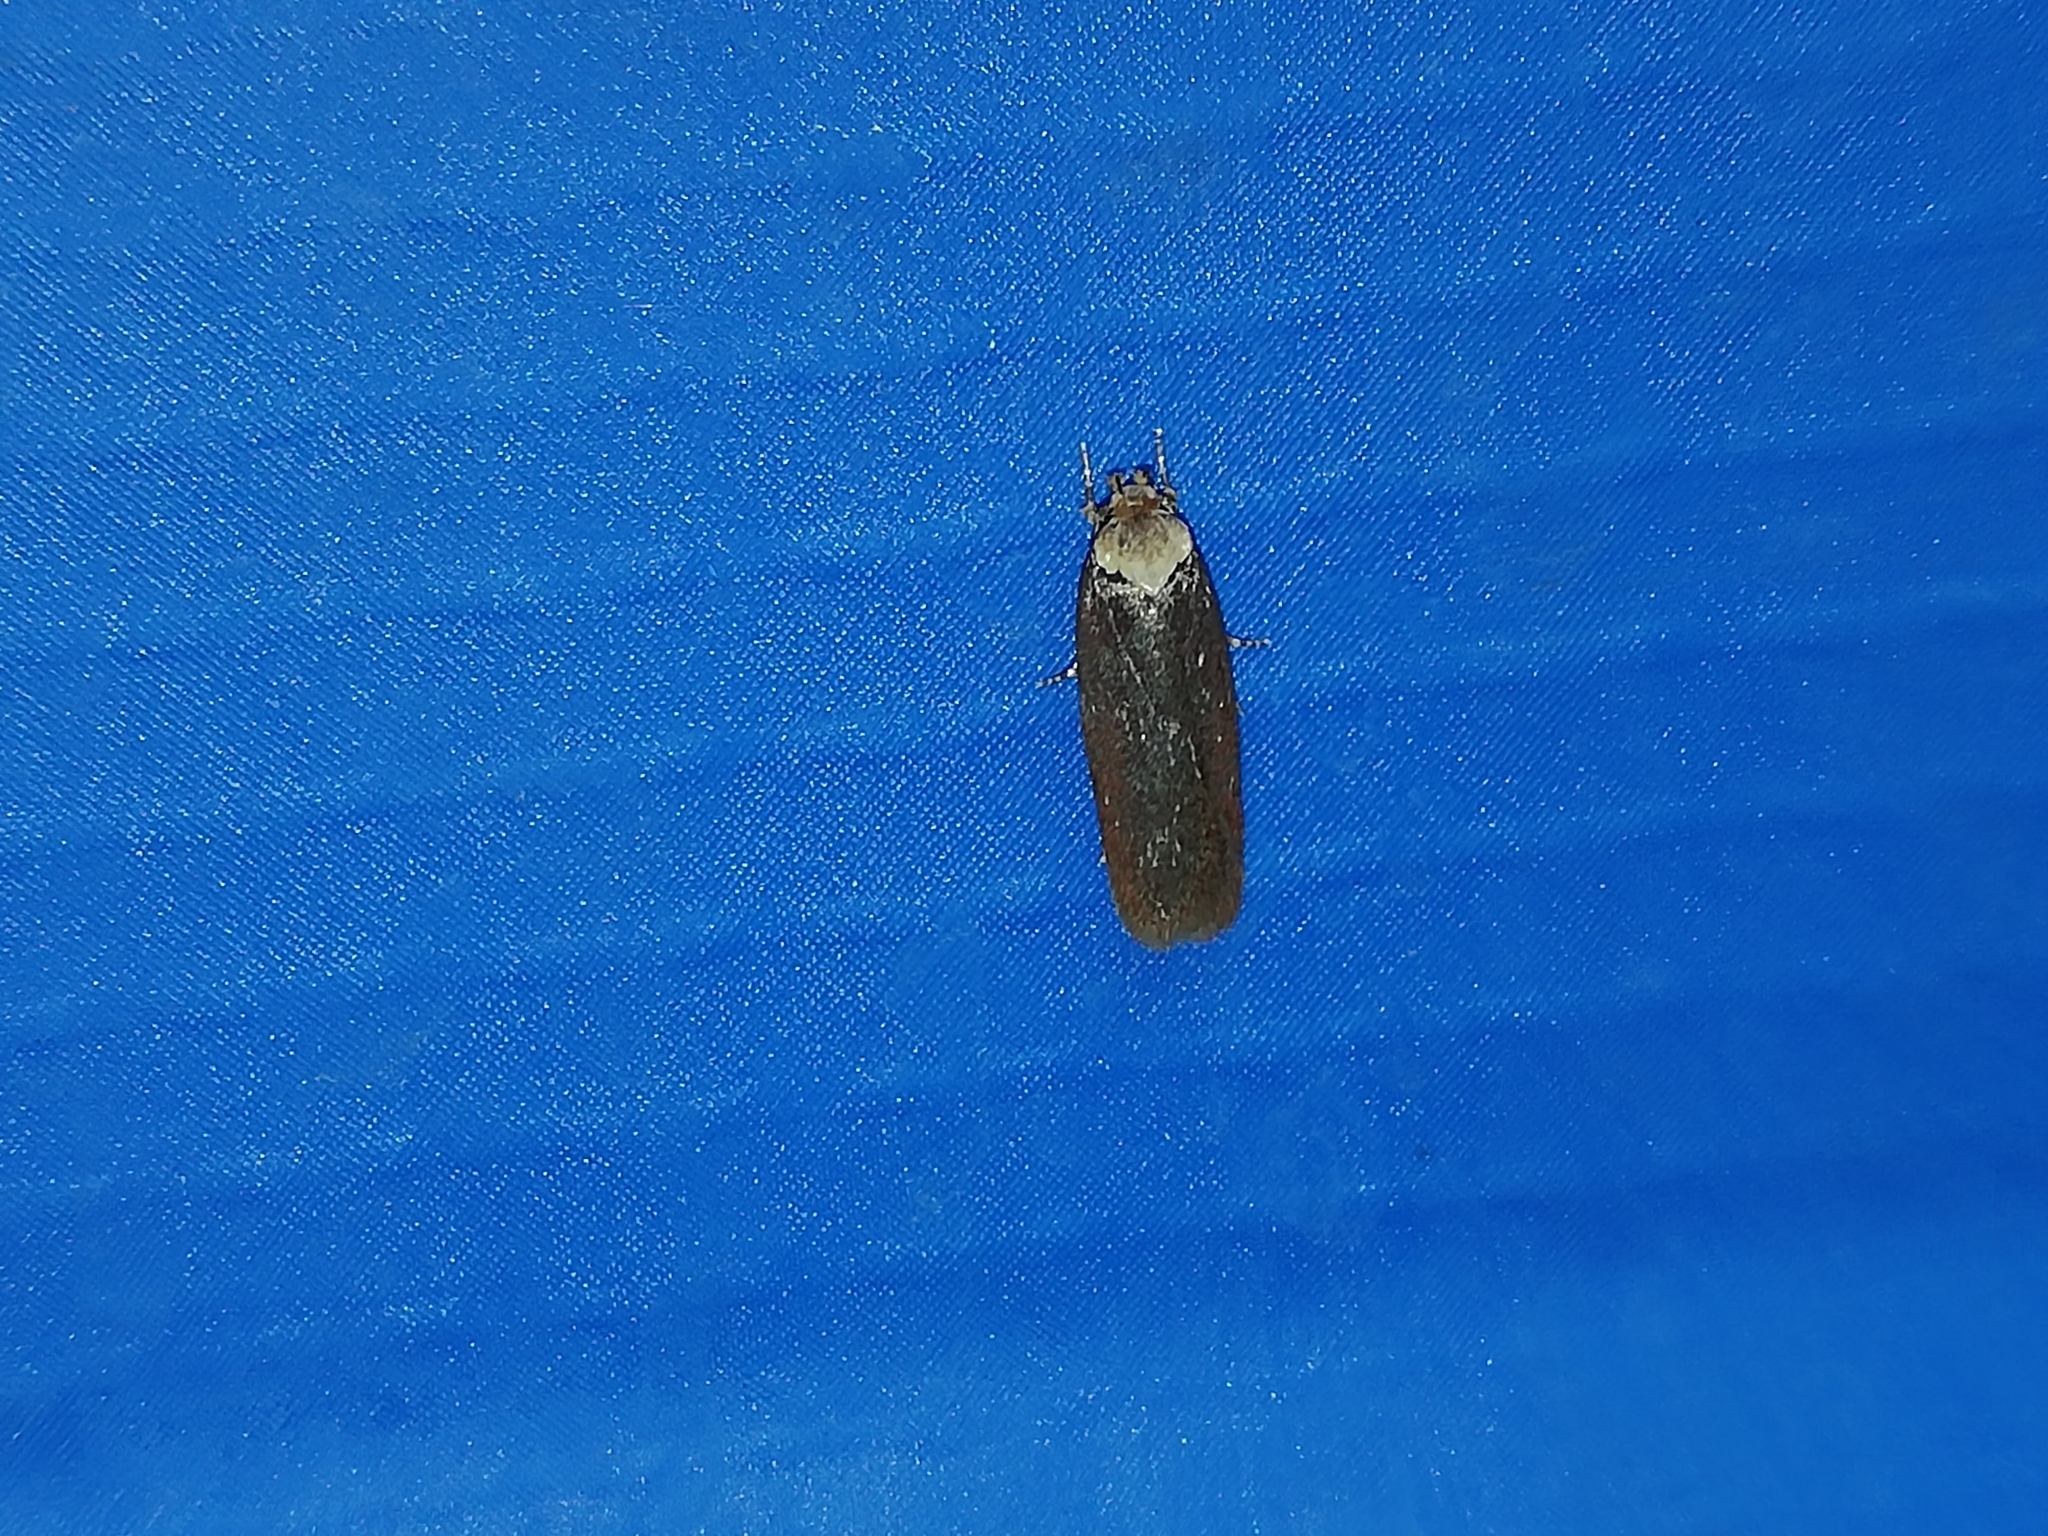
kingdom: Animalia
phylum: Arthropoda
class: Insecta
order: Lepidoptera
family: Depressariidae
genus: Depressaria
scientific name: Depressaria depressana
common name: Lost flat-body
